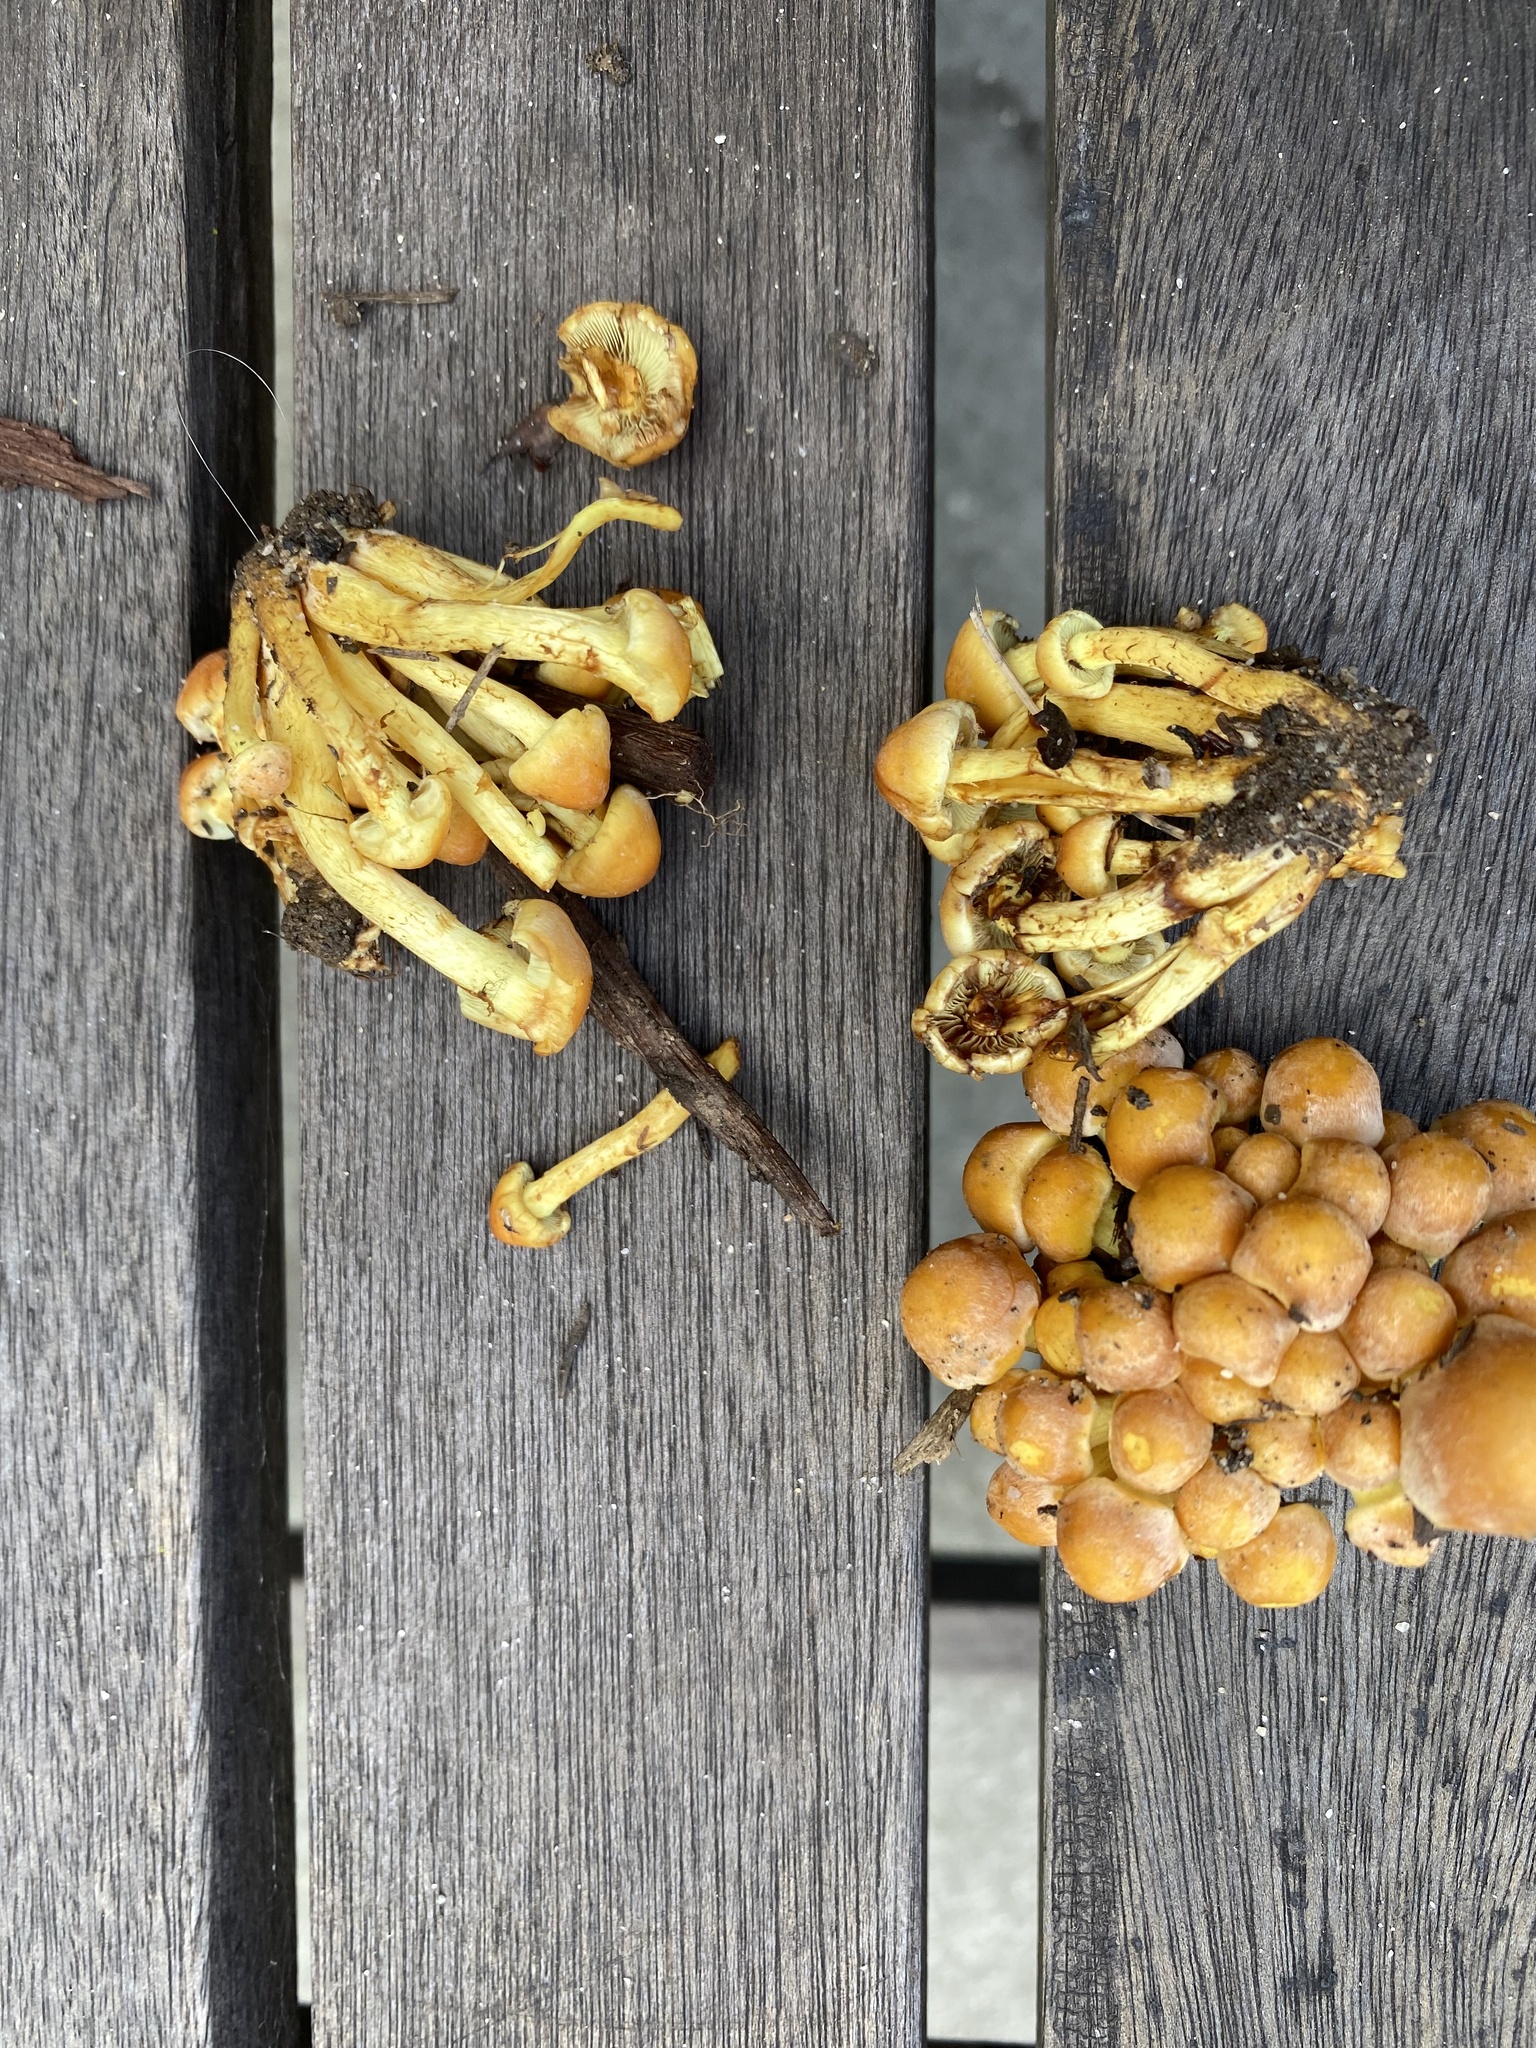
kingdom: Fungi
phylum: Basidiomycota
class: Agaricomycetes
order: Agaricales
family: Strophariaceae
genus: Hypholoma
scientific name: Hypholoma fasciculare
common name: Sulphur tuft
